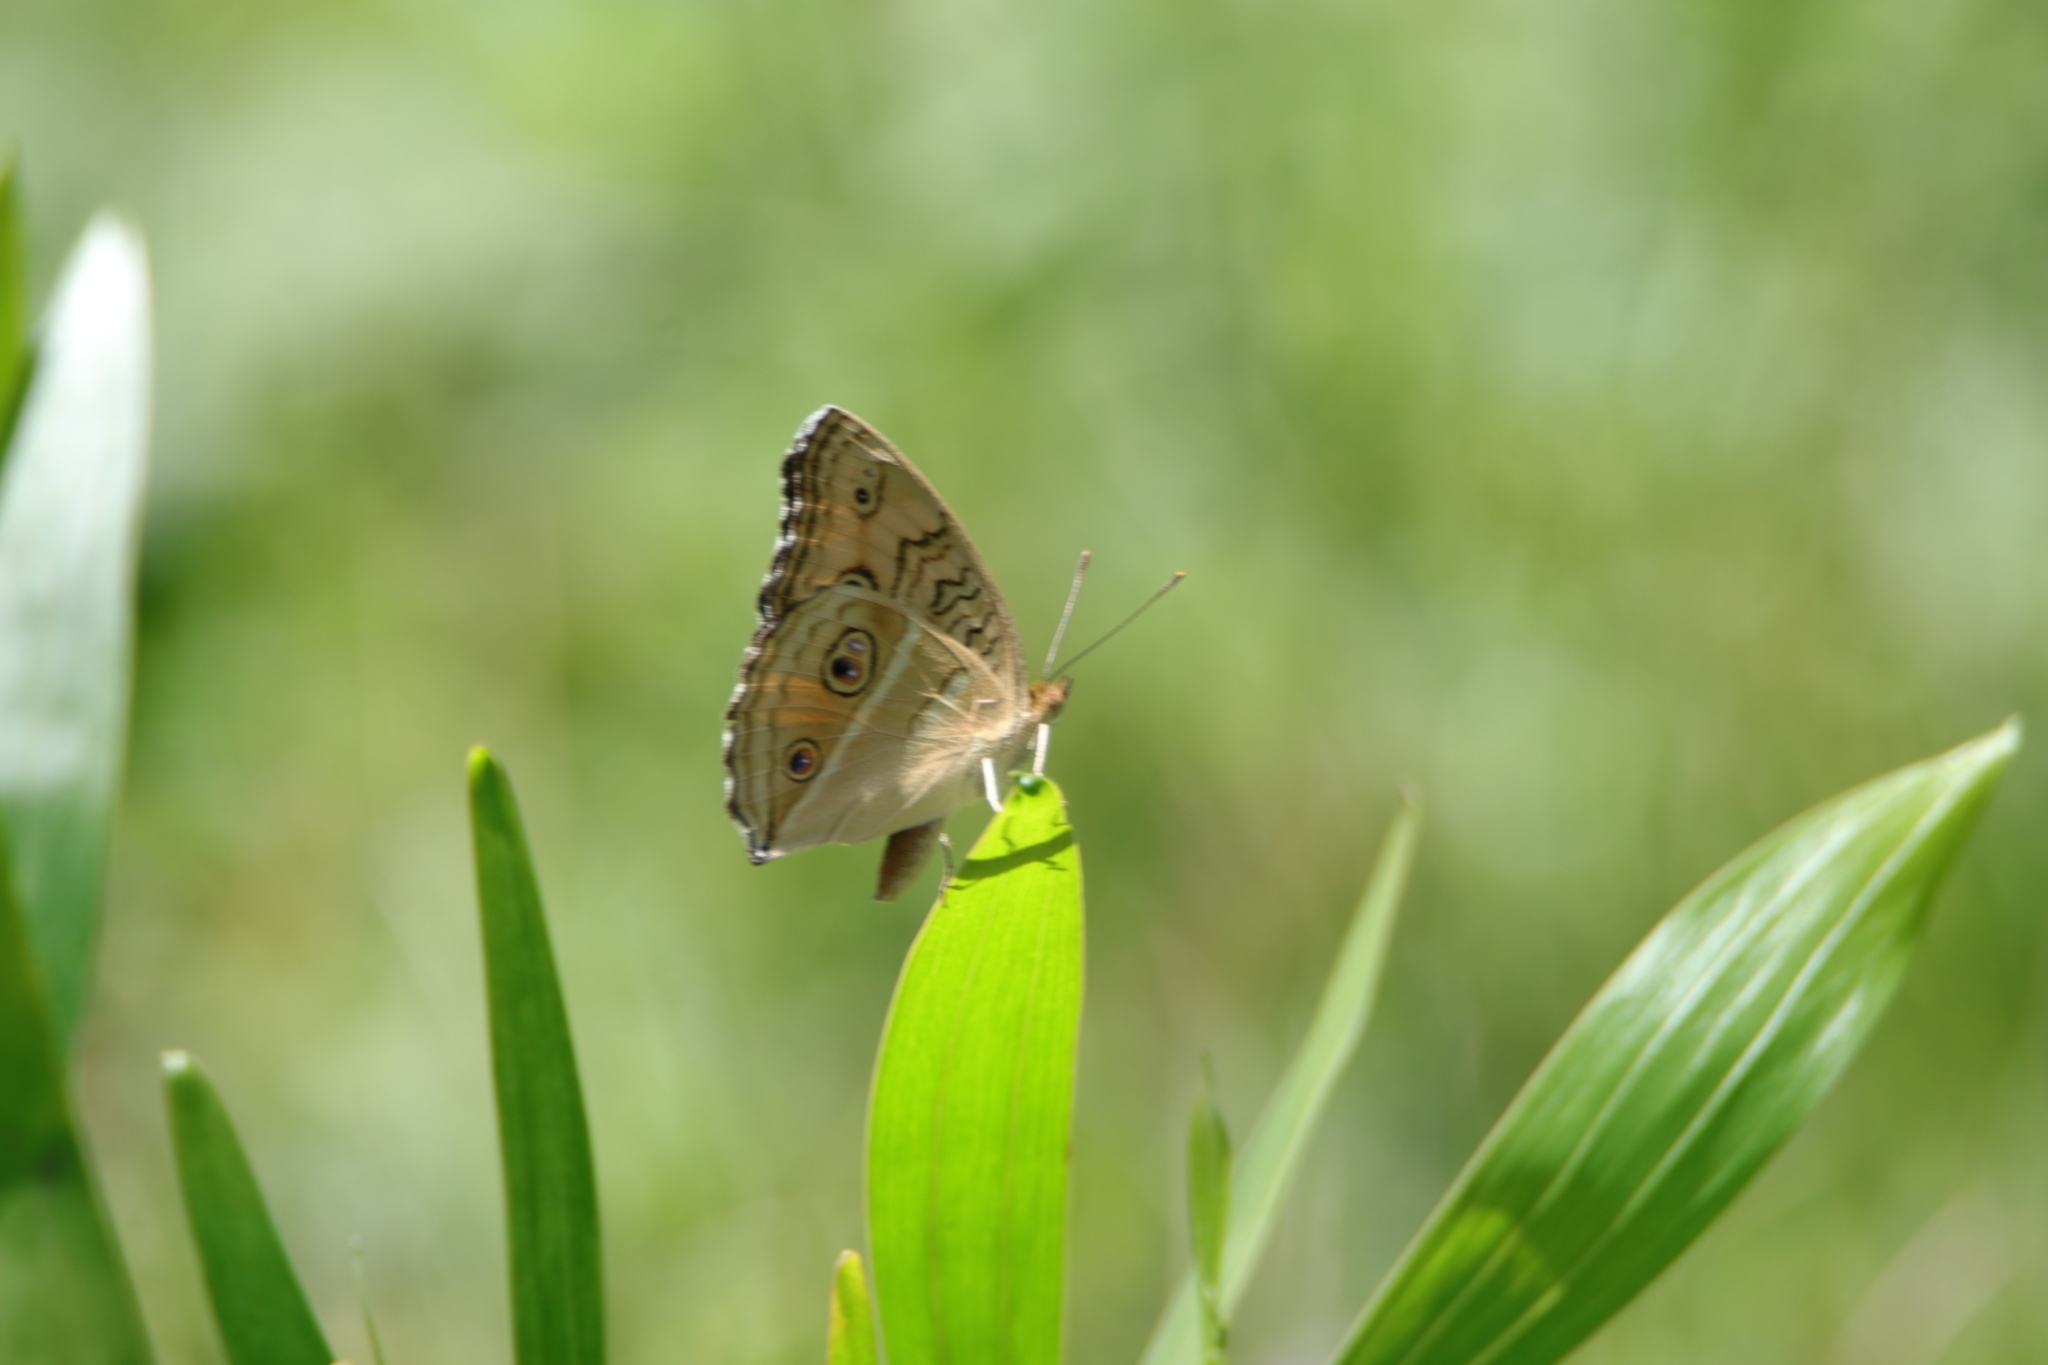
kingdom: Animalia
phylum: Arthropoda
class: Insecta
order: Lepidoptera
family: Nymphalidae
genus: Junonia
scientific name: Junonia almana
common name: Peacock pansy
